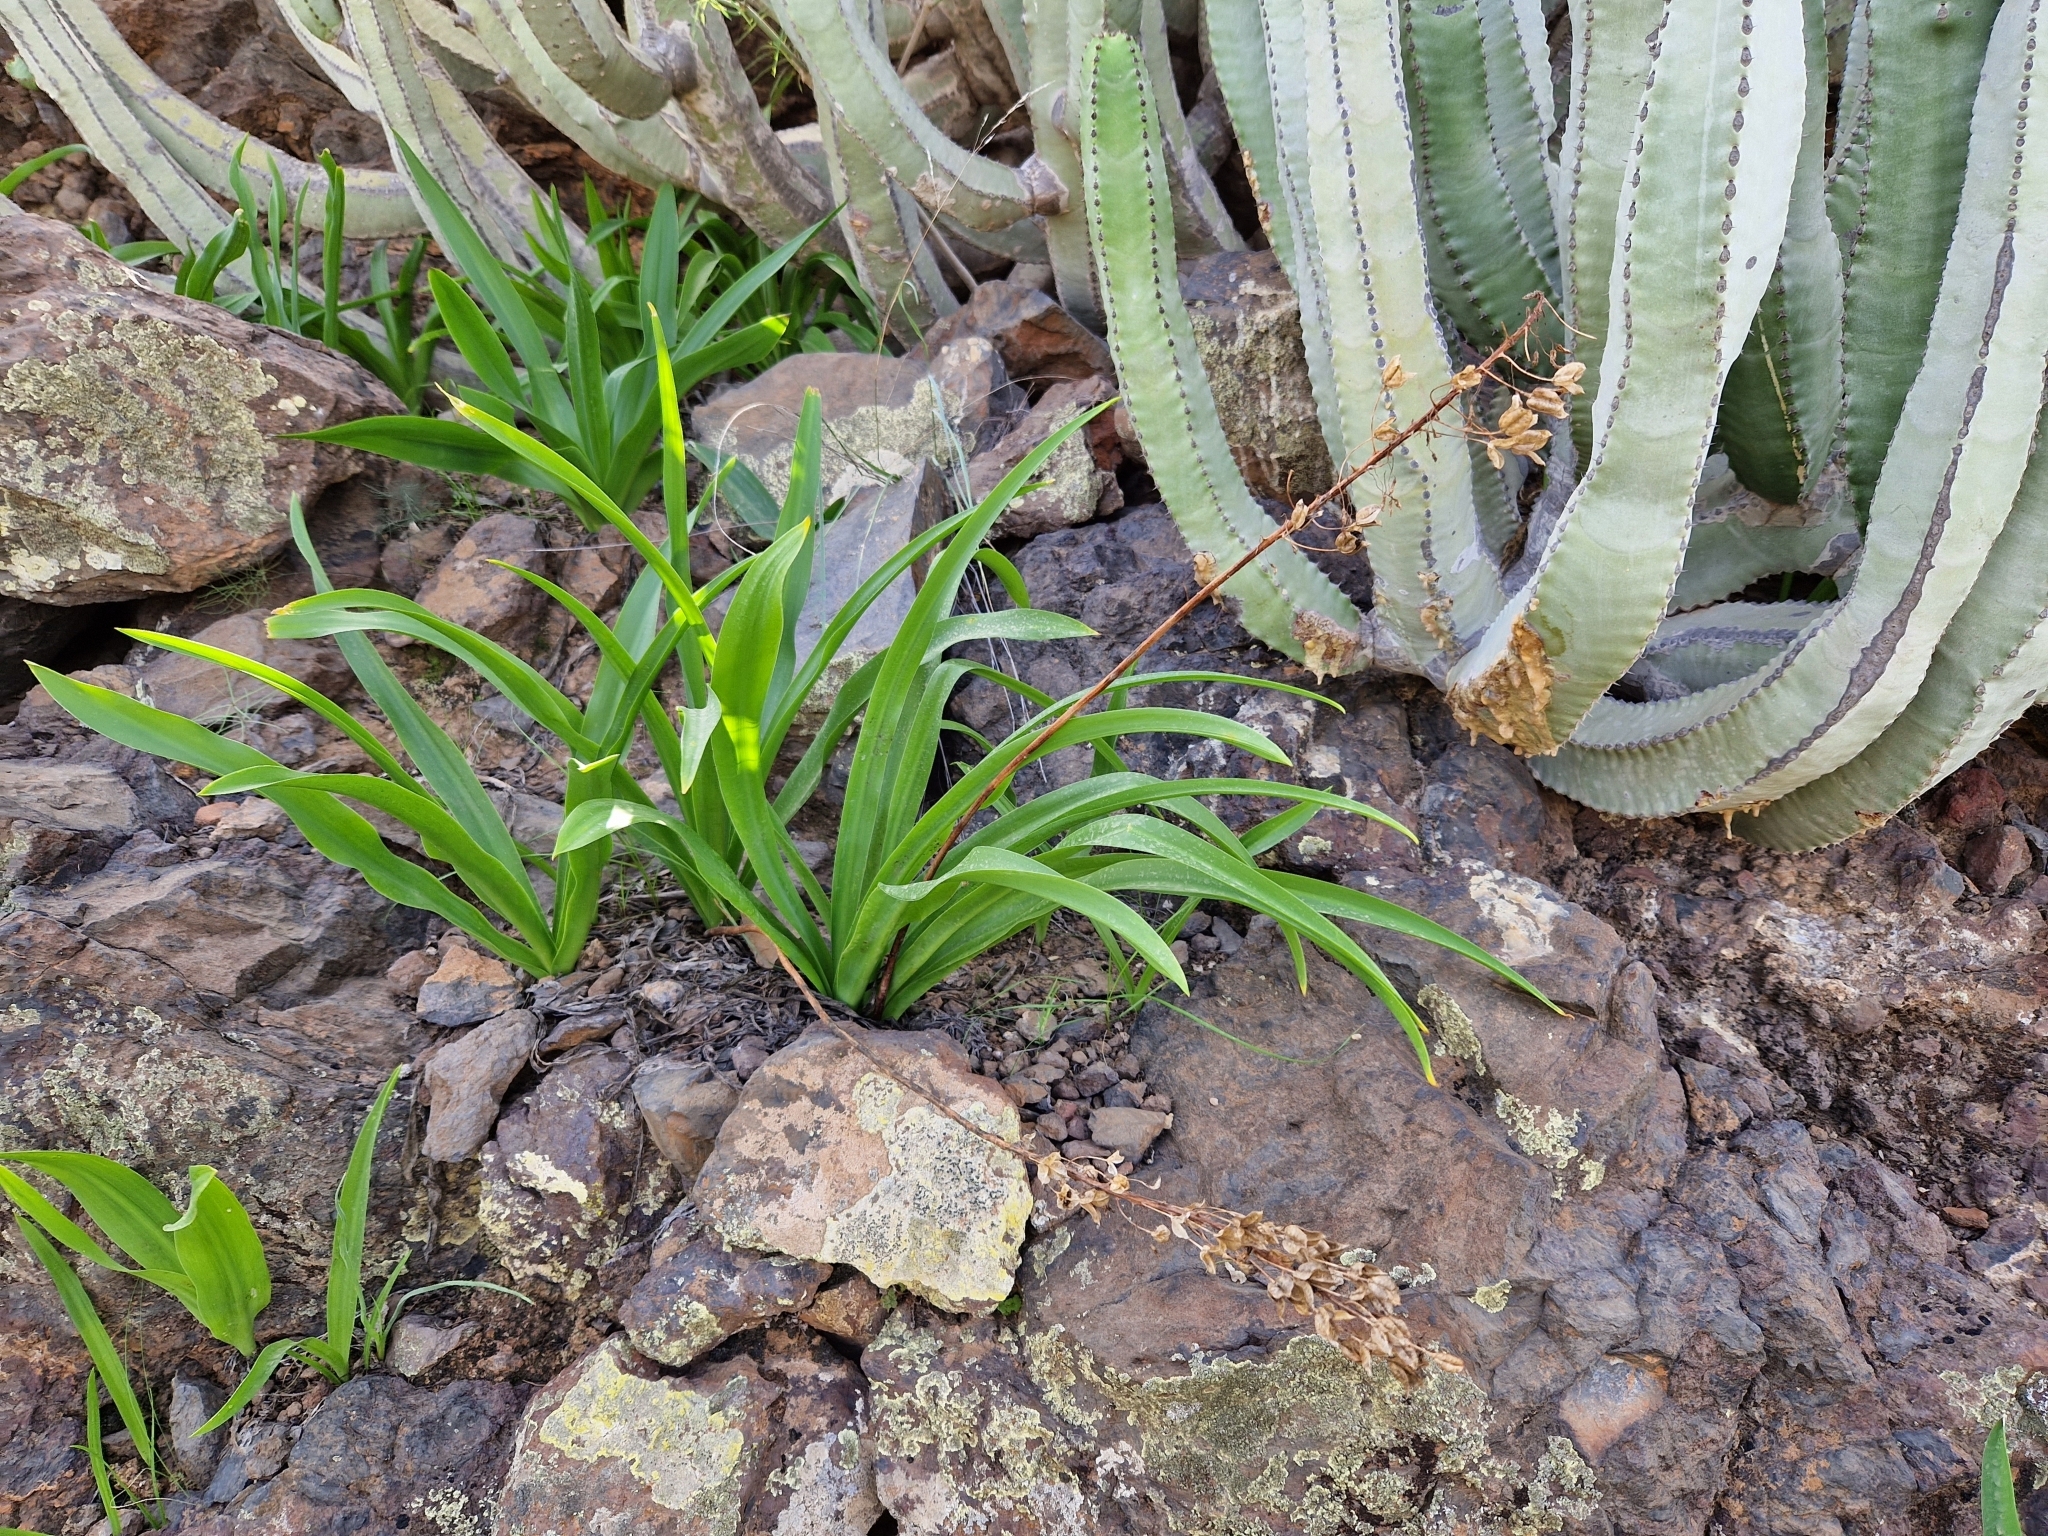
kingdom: Plantae
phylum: Tracheophyta
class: Liliopsida
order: Asparagales
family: Asparagaceae
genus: Drimia
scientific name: Drimia hesperia
